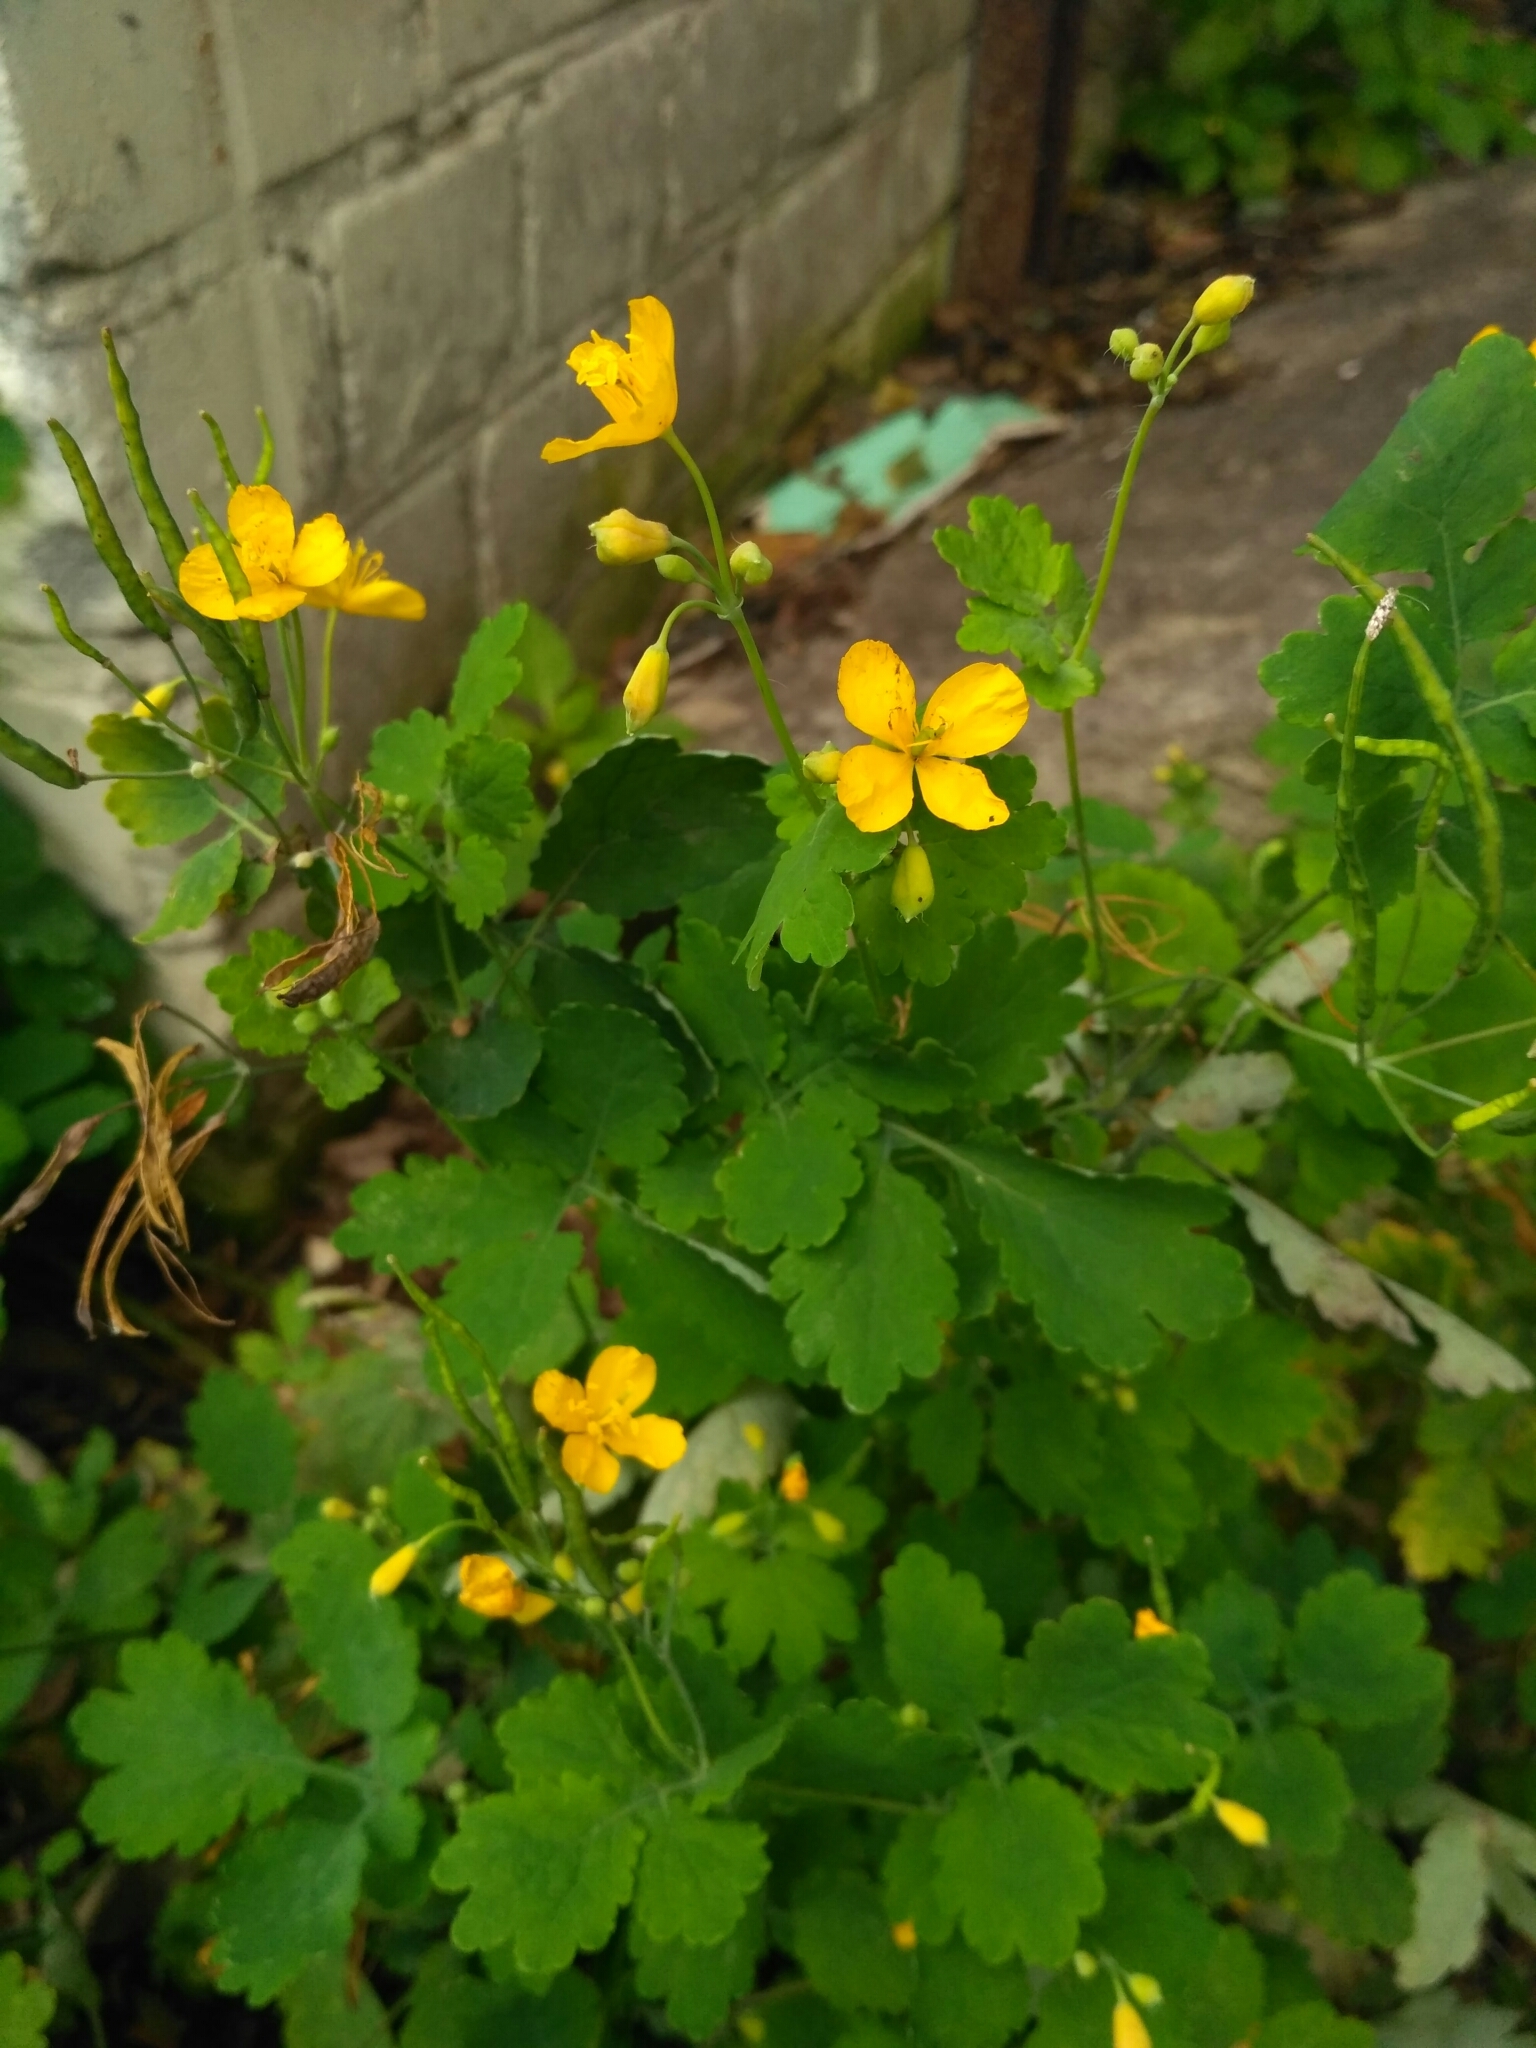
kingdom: Plantae
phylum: Tracheophyta
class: Magnoliopsida
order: Ranunculales
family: Papaveraceae
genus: Chelidonium
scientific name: Chelidonium majus
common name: Greater celandine
